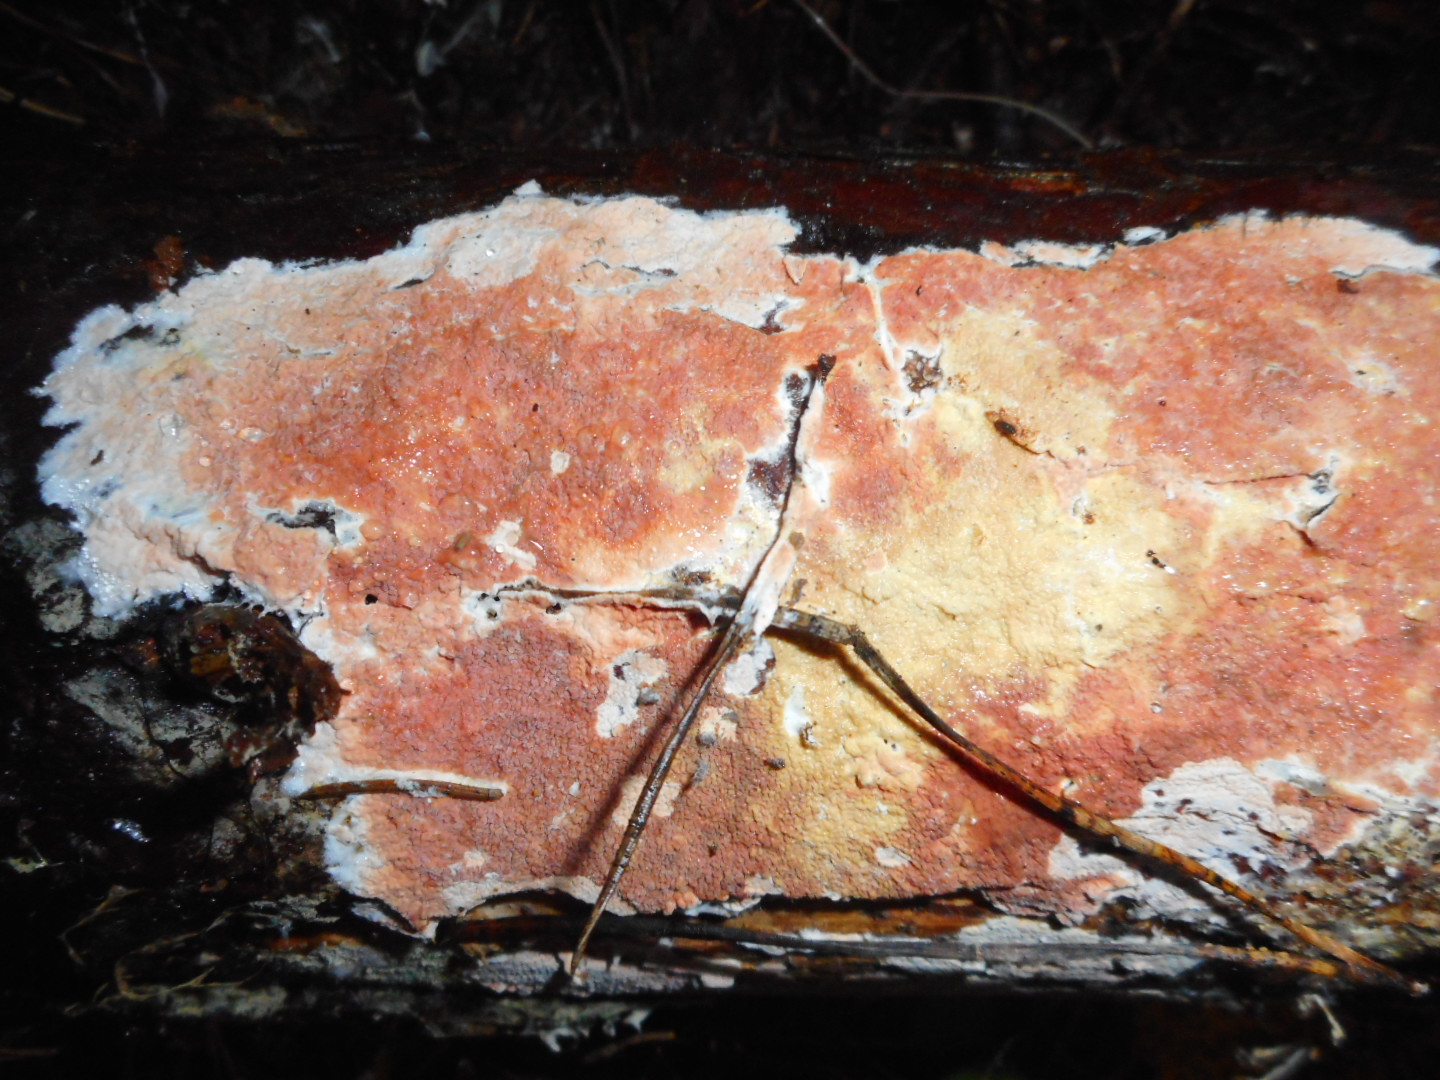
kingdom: Fungi
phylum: Basidiomycota
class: Agaricomycetes
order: Polyporales
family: Irpicaceae
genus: Meruliopsis
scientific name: Meruliopsis taxicola
